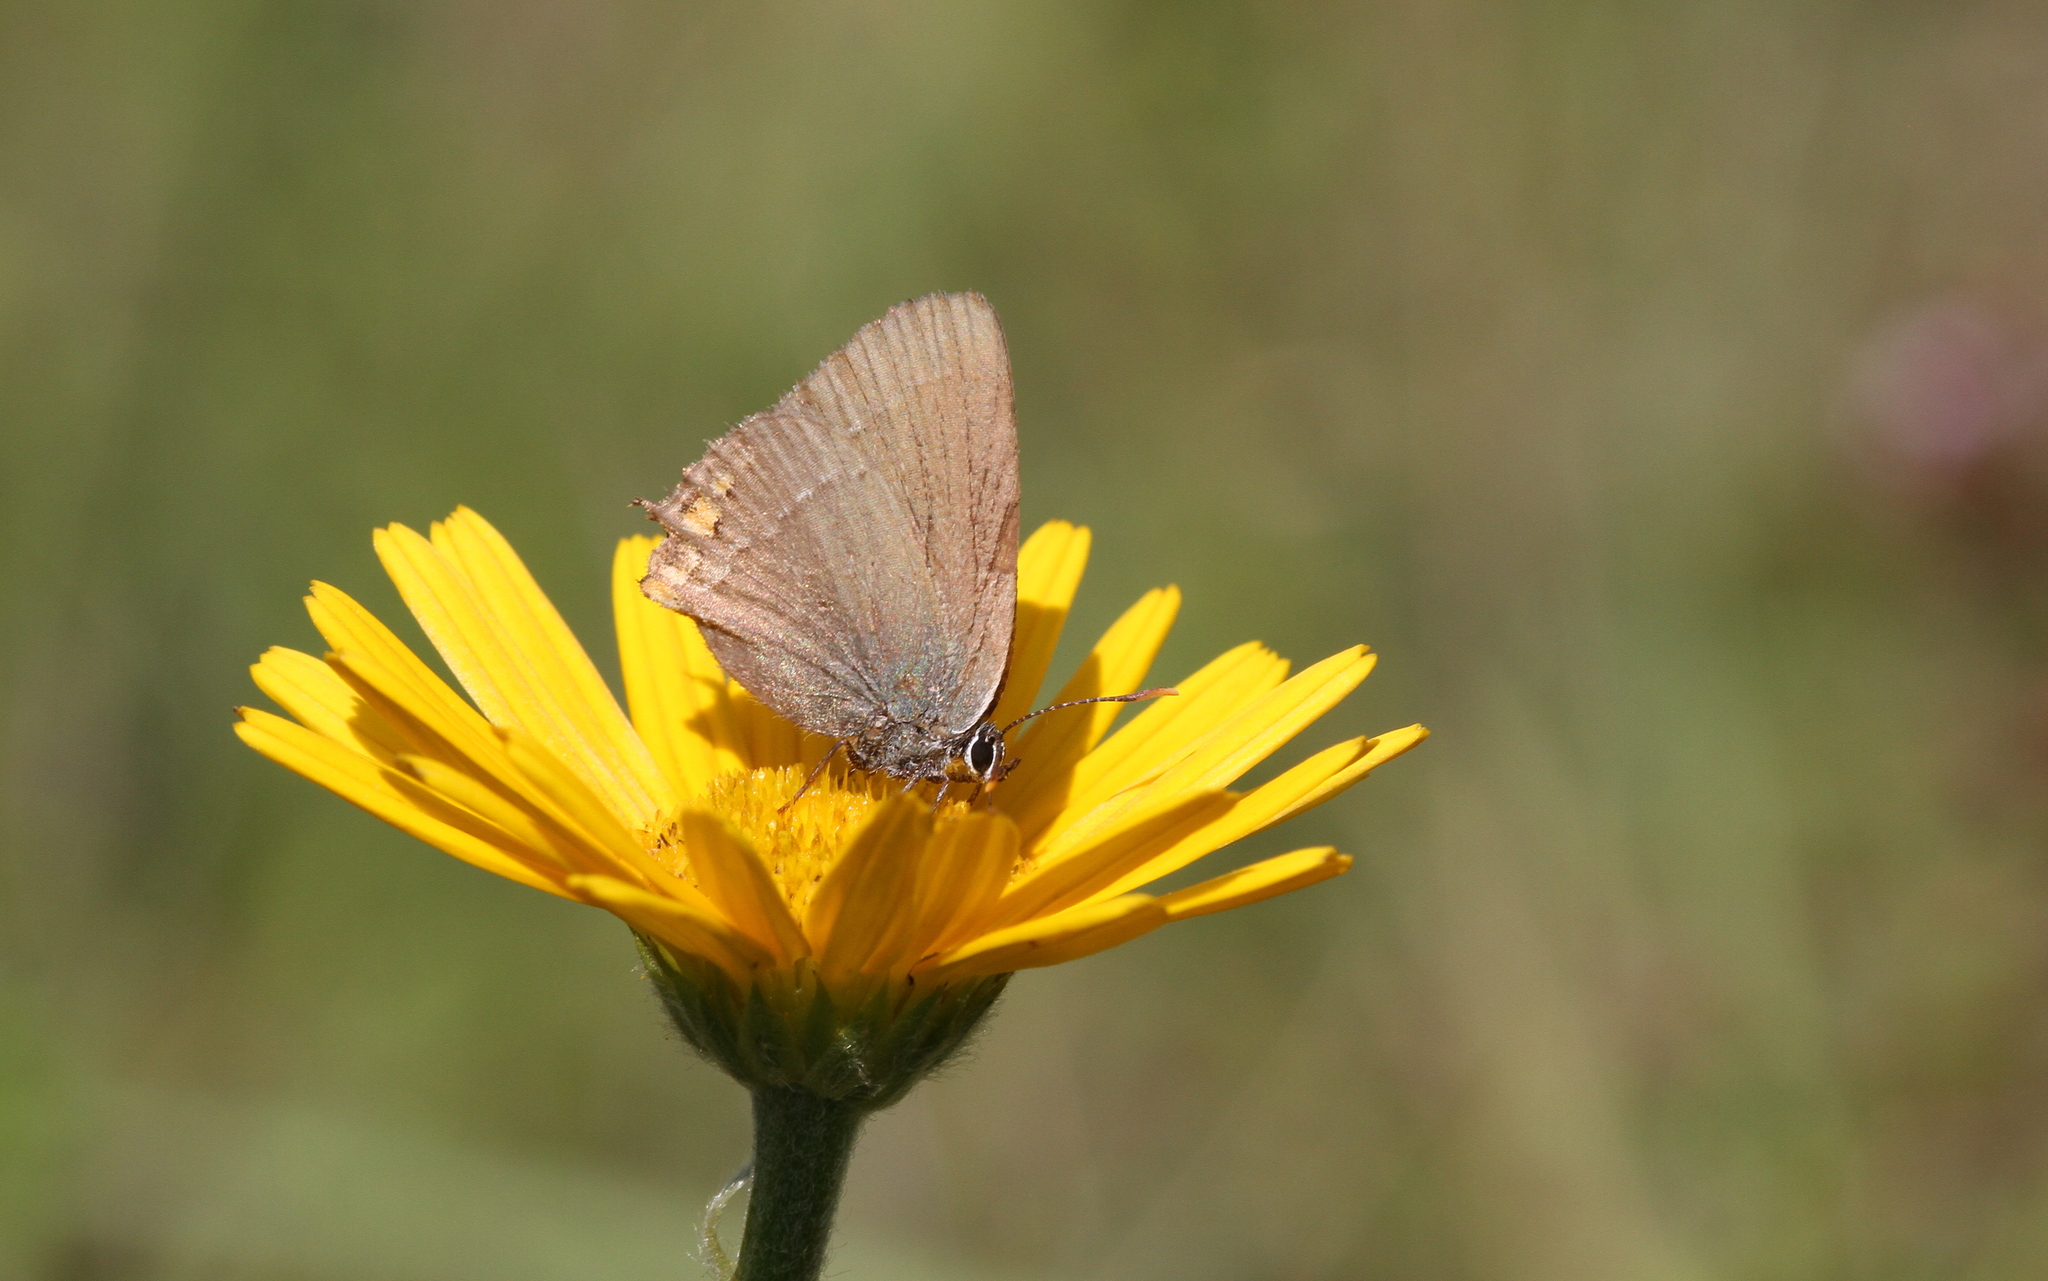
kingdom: Animalia
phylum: Arthropoda
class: Insecta
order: Lepidoptera
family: Lycaenidae
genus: Strymon
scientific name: Strymon acaciae
